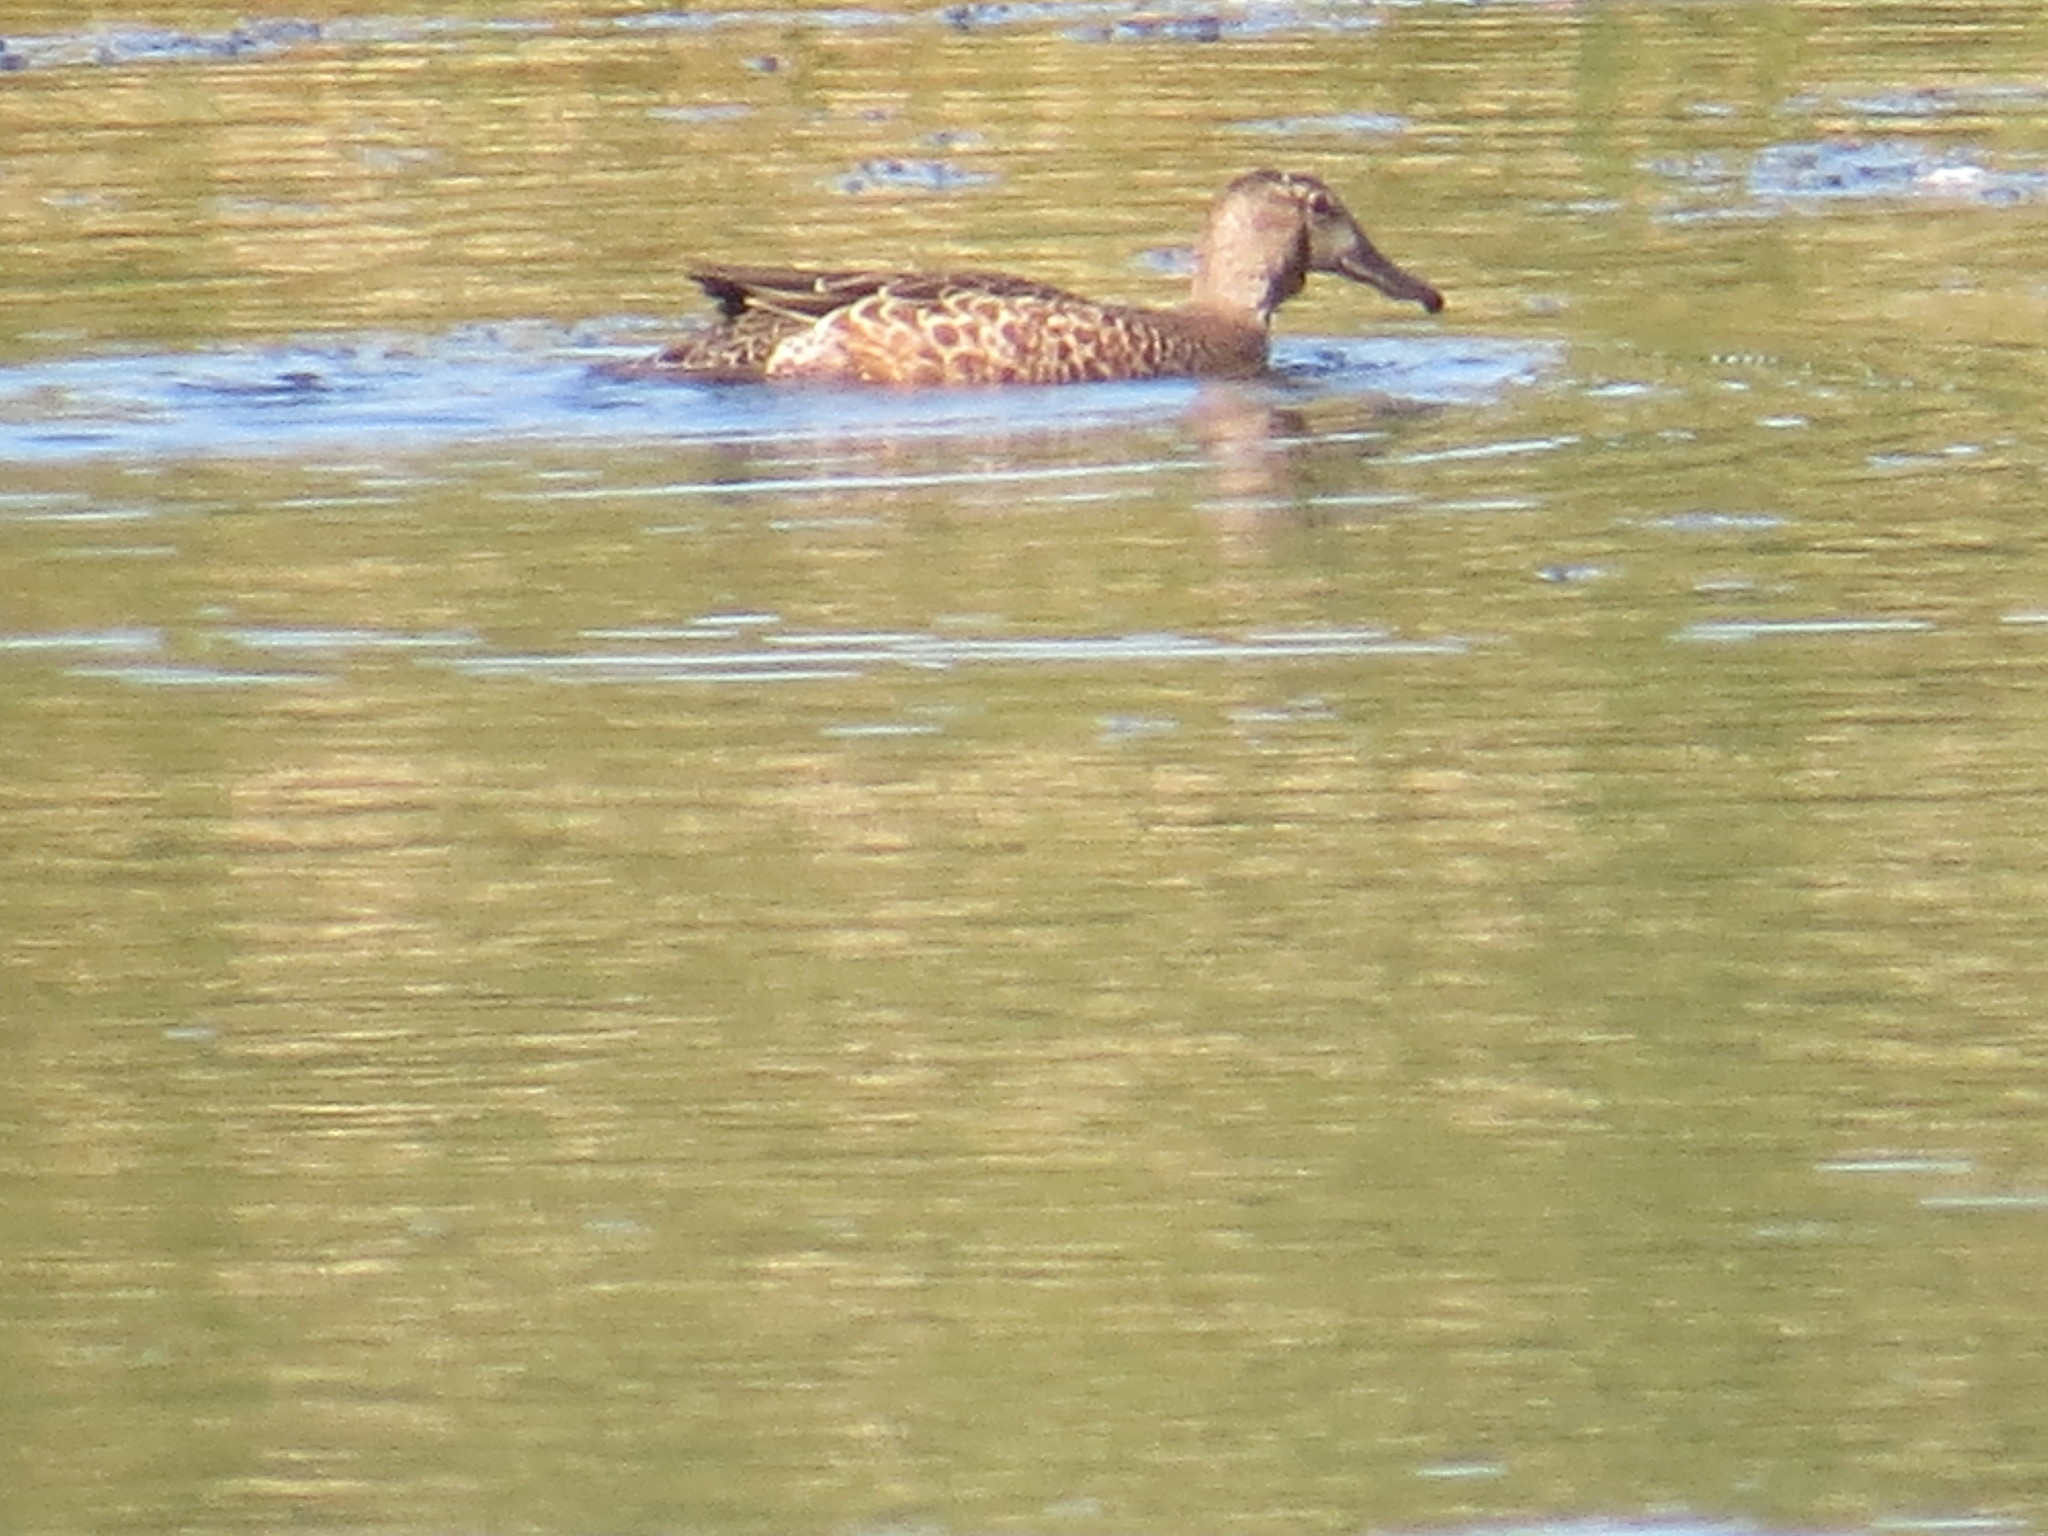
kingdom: Animalia
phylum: Chordata
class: Aves
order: Anseriformes
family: Anatidae
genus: Spatula
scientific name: Spatula discors
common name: Blue-winged teal
